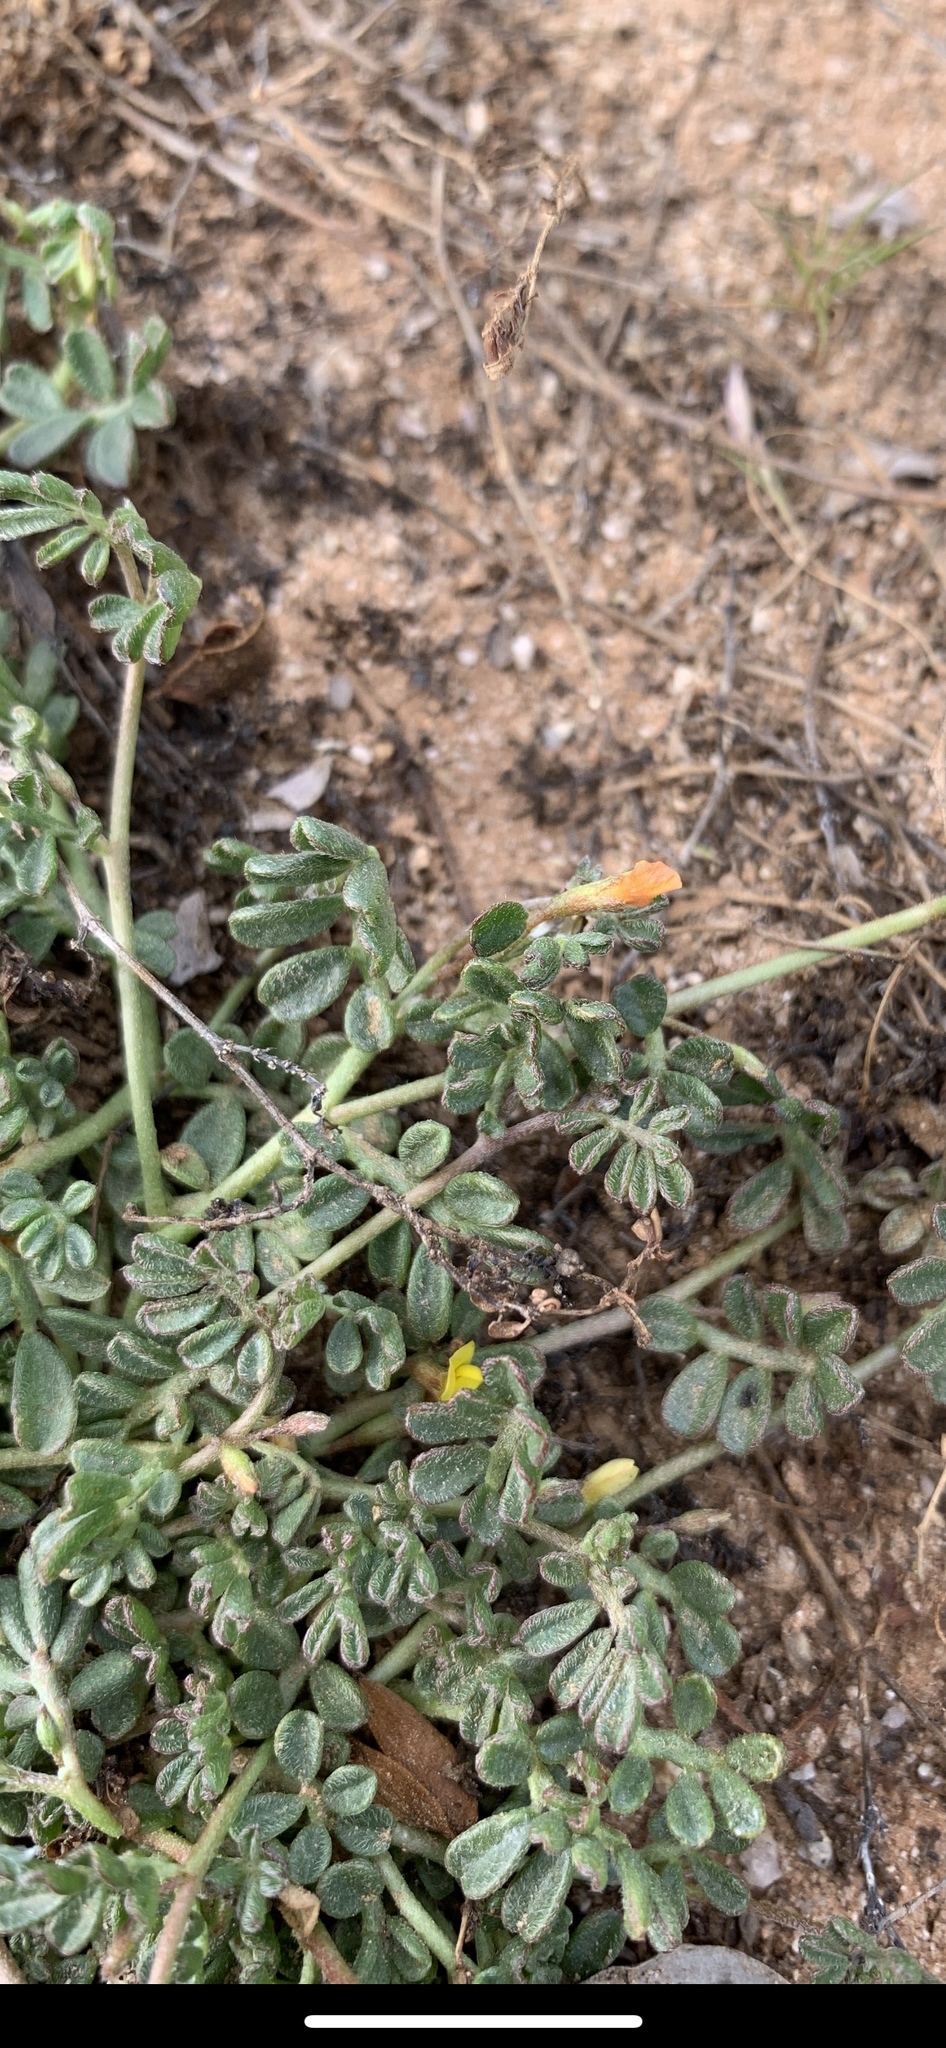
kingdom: Plantae
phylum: Tracheophyta
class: Magnoliopsida
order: Fabales
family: Fabaceae
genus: Acmispon
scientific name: Acmispon strigosus
